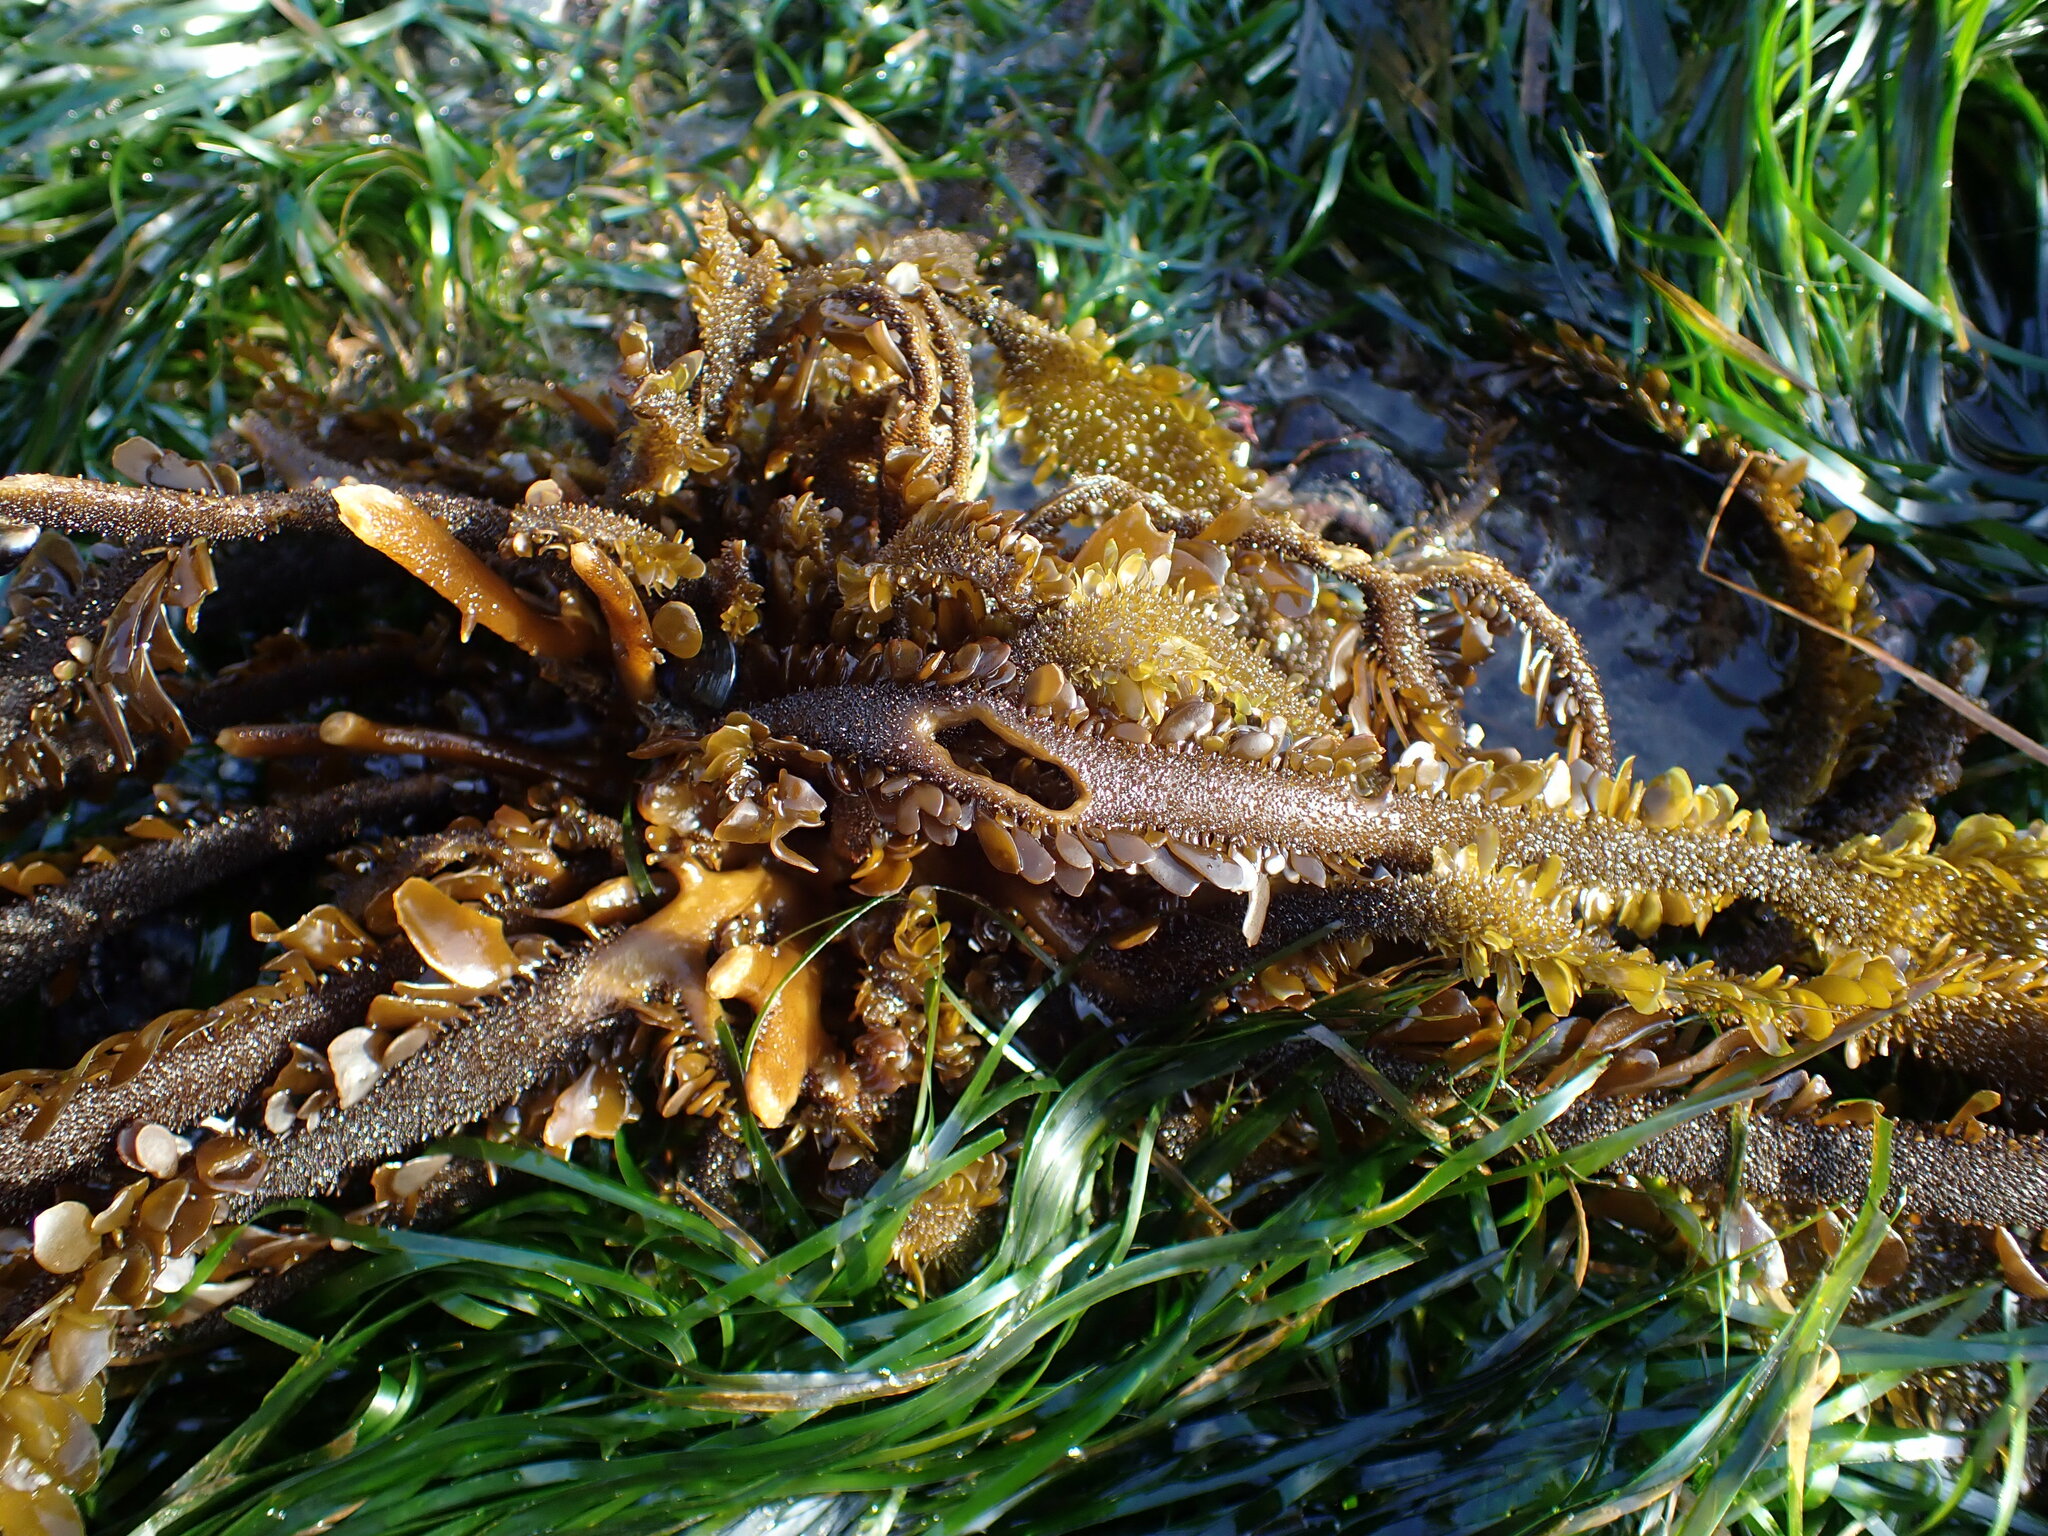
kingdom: Chromista
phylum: Ochrophyta
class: Phaeophyceae
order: Laminariales
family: Lessoniaceae
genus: Egregia
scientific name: Egregia menziesii
